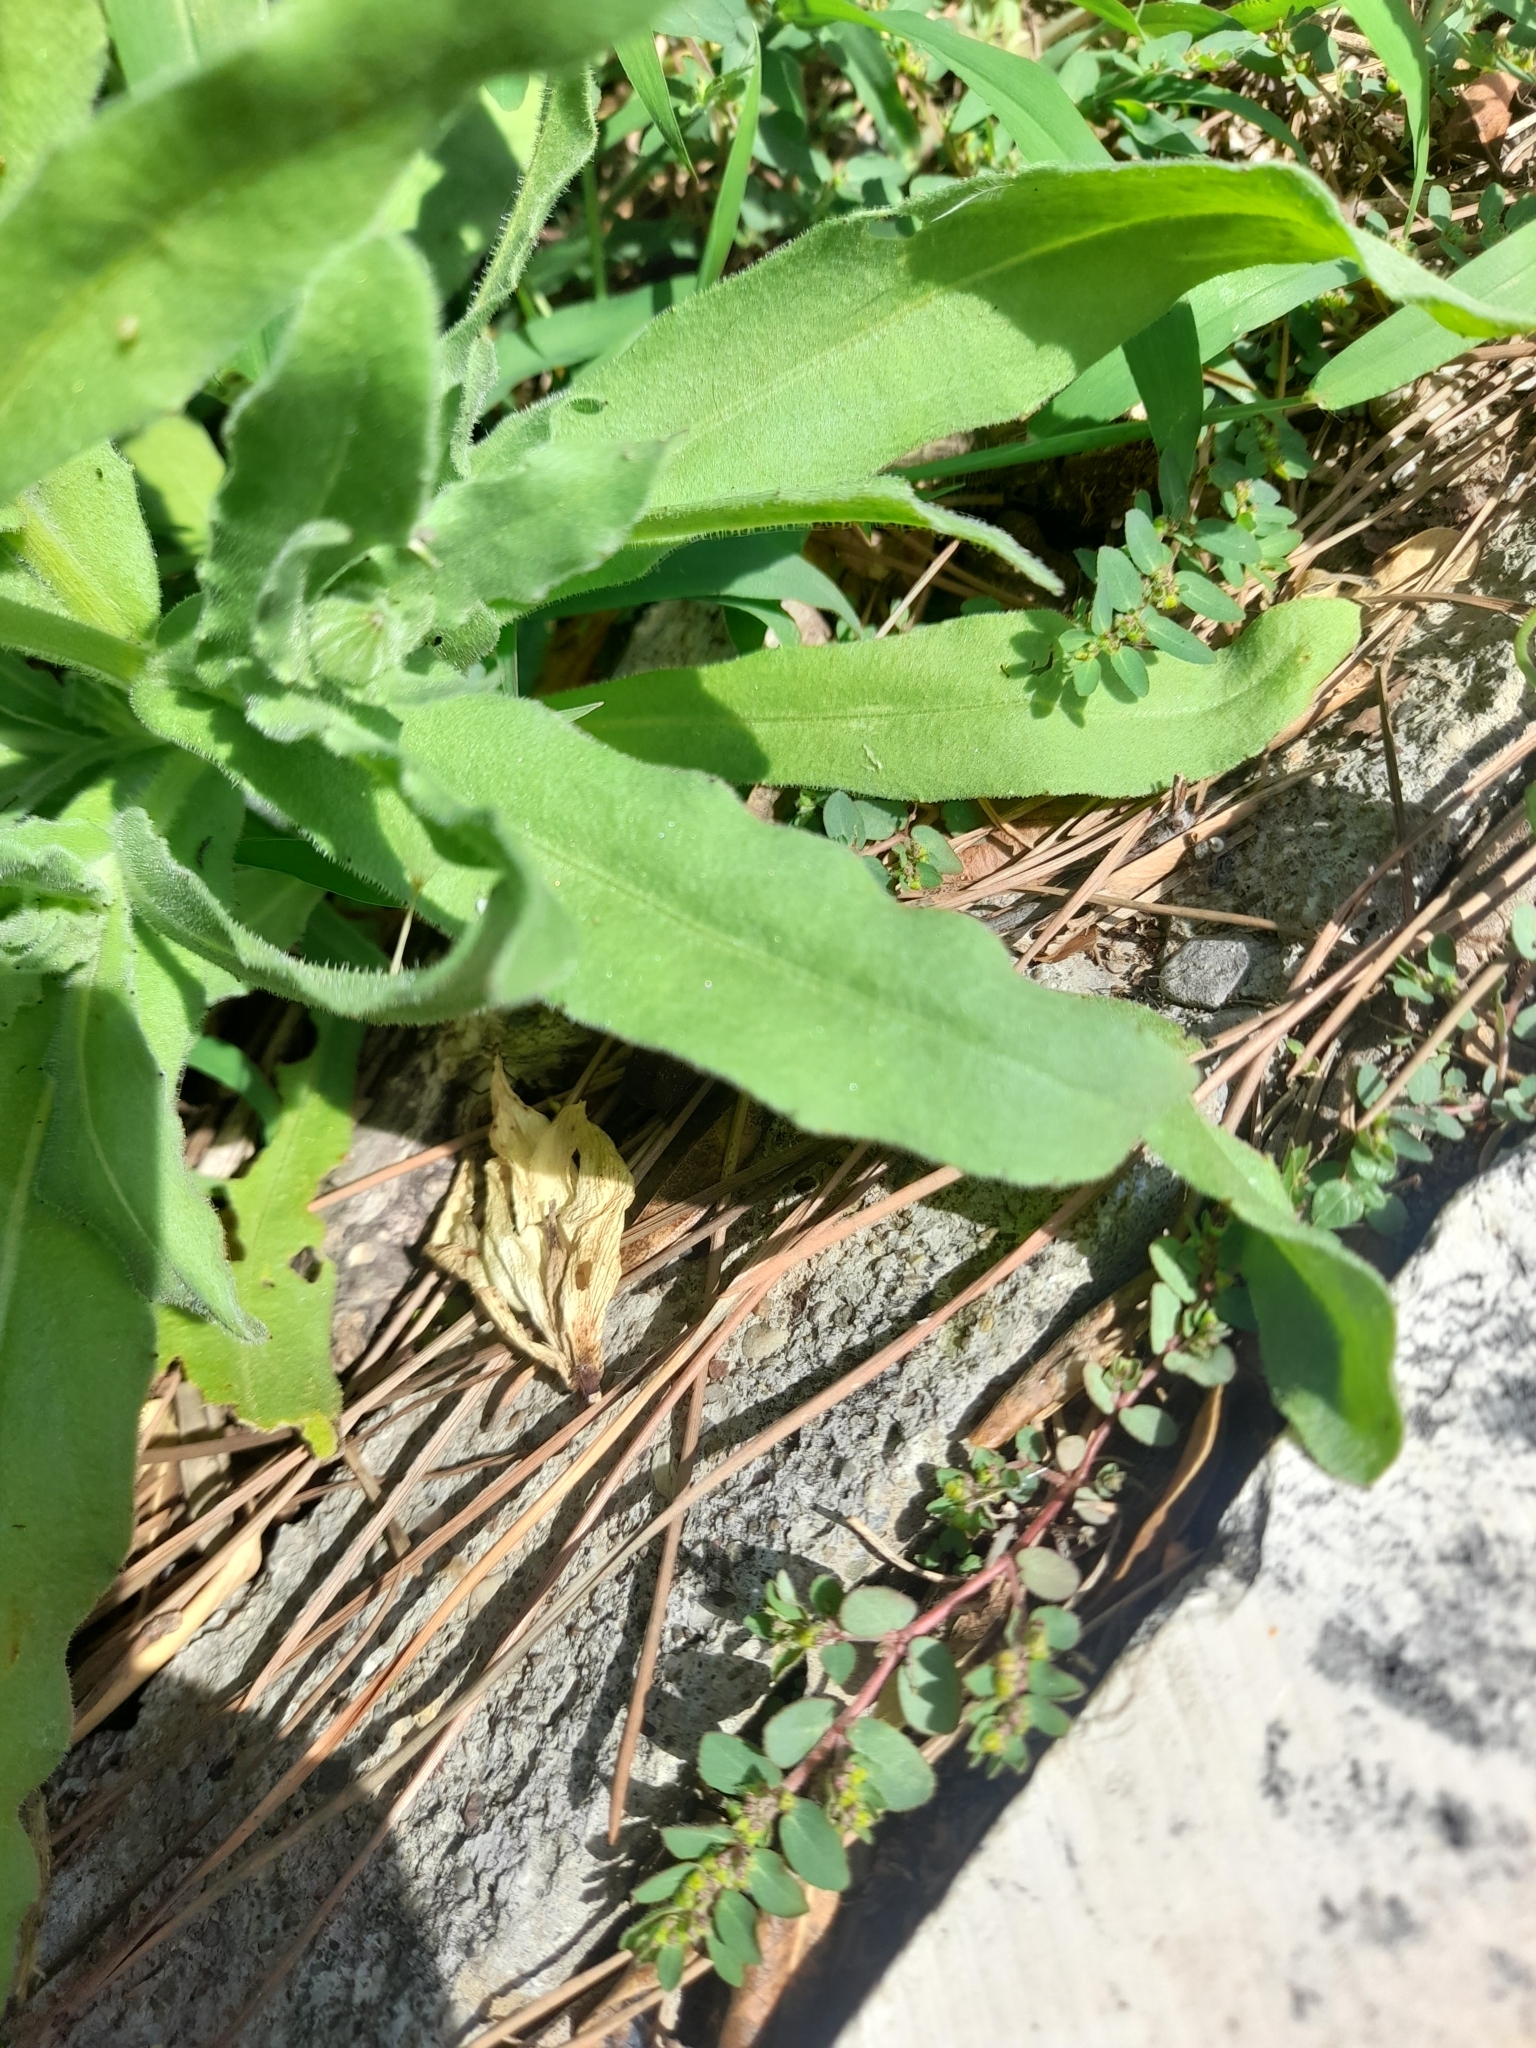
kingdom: Plantae
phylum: Tracheophyta
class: Magnoliopsida
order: Asterales
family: Asteraceae
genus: Calendula
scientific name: Calendula arvensis
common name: Field marigold
